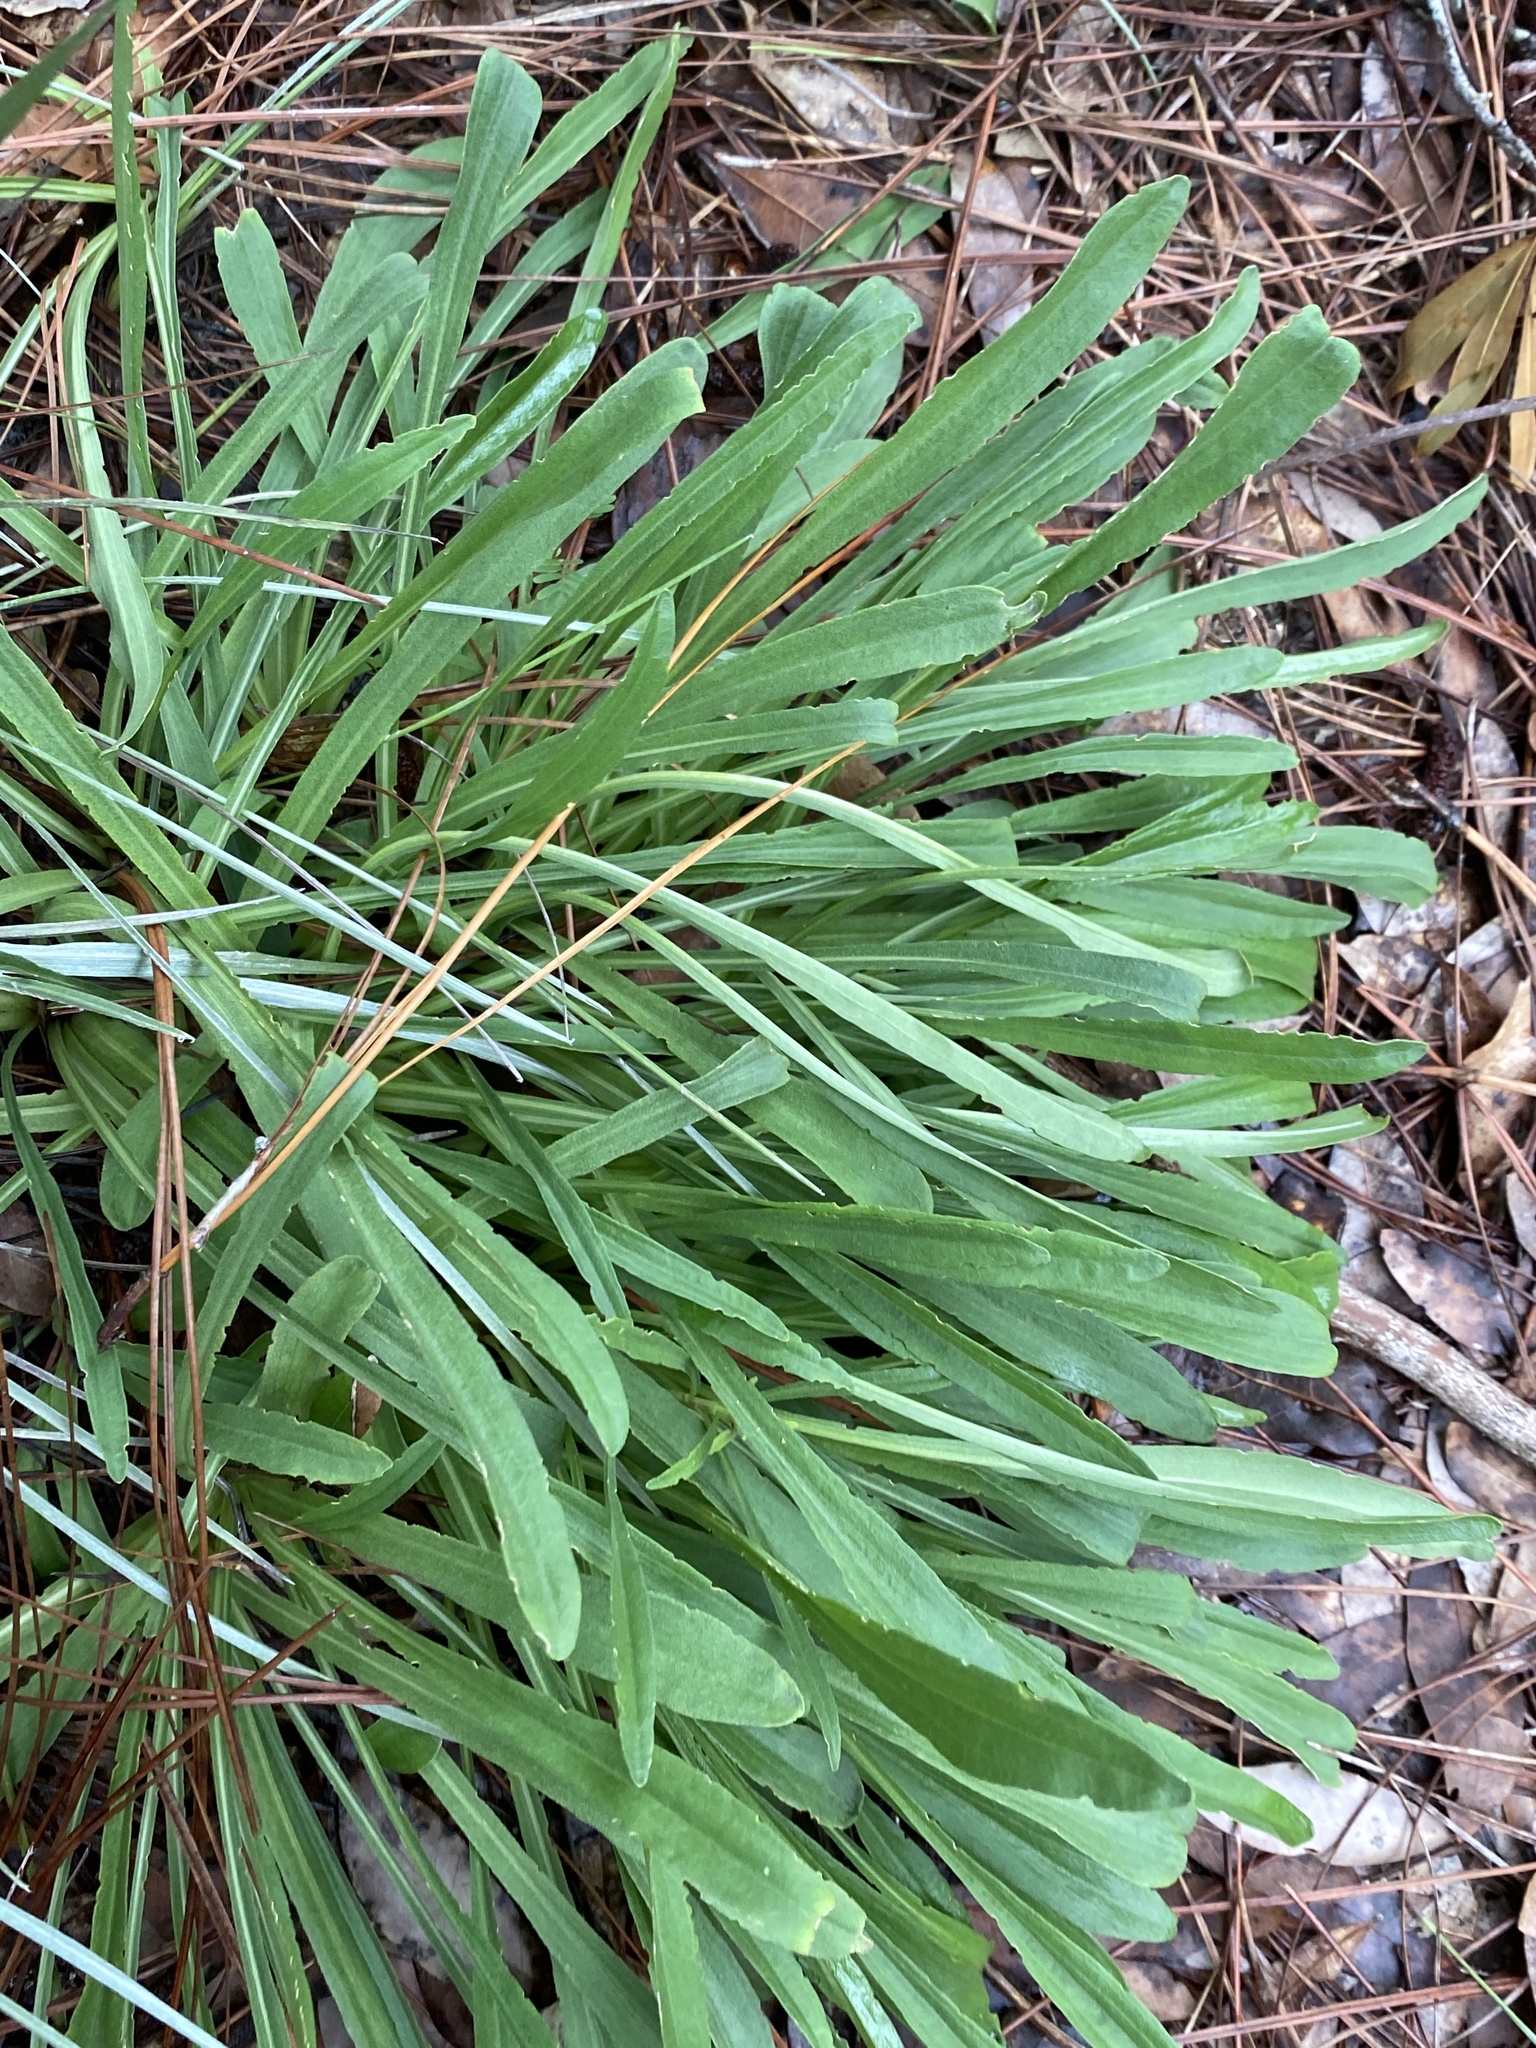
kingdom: Plantae
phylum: Tracheophyta
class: Magnoliopsida
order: Asterales
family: Asteraceae
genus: Carphephorus
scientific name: Carphephorus bellidifolius
